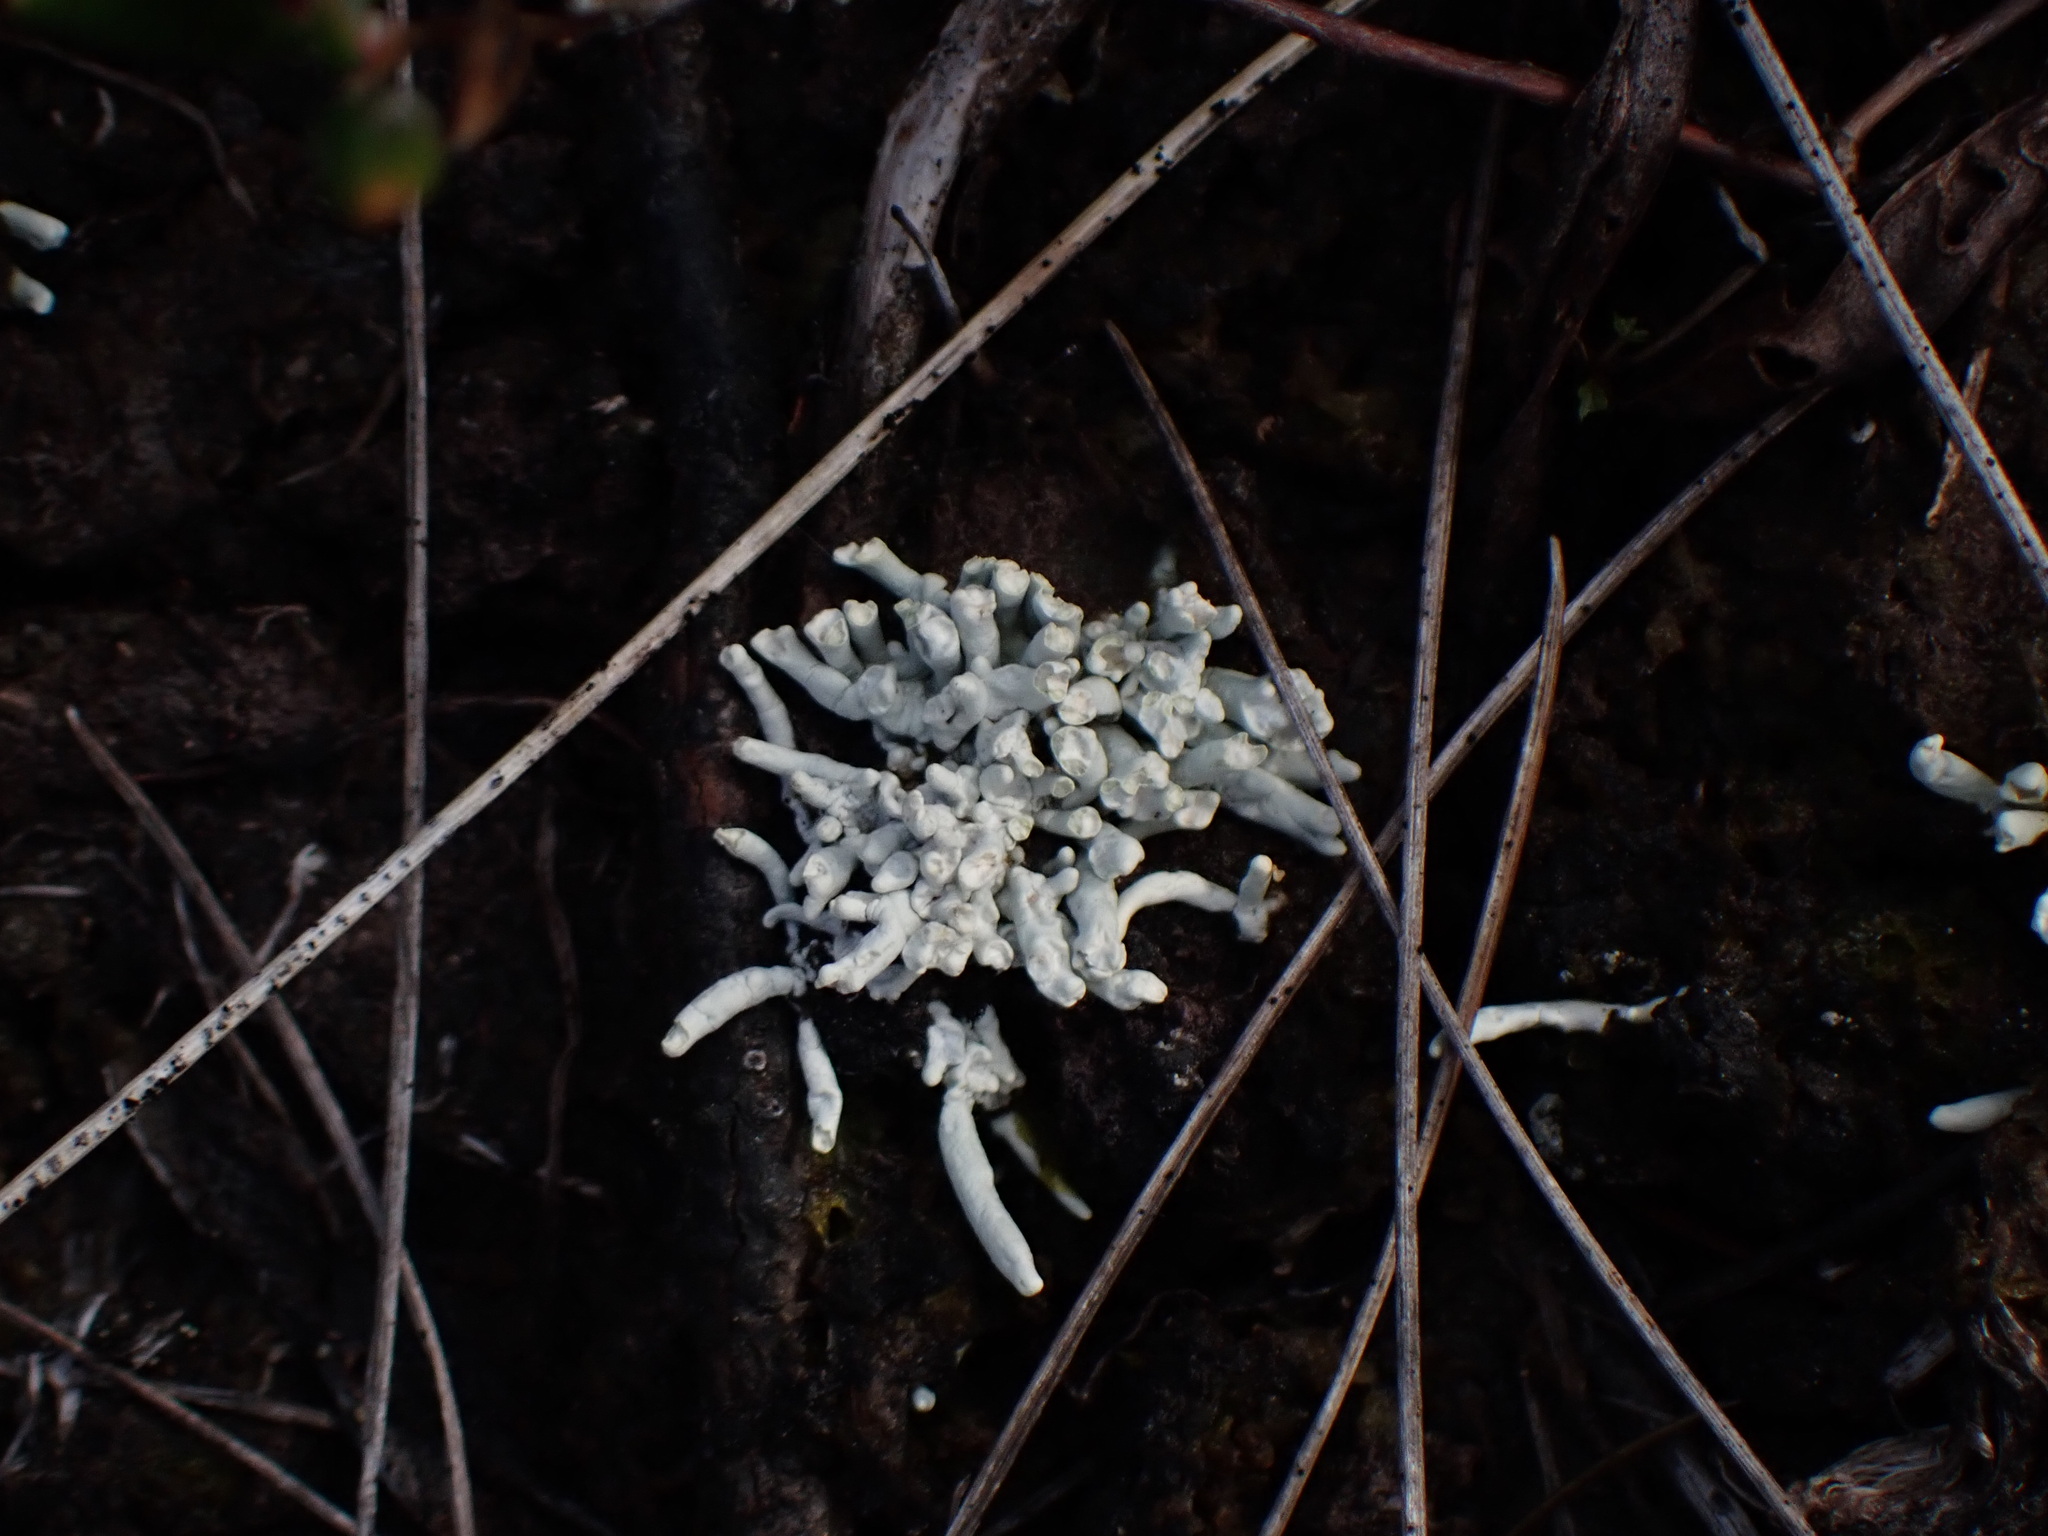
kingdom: Fungi
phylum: Ascomycota
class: Lecanoromycetes
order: Pertusariales
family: Icmadophilaceae
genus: Siphula
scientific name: Siphula ceratites
